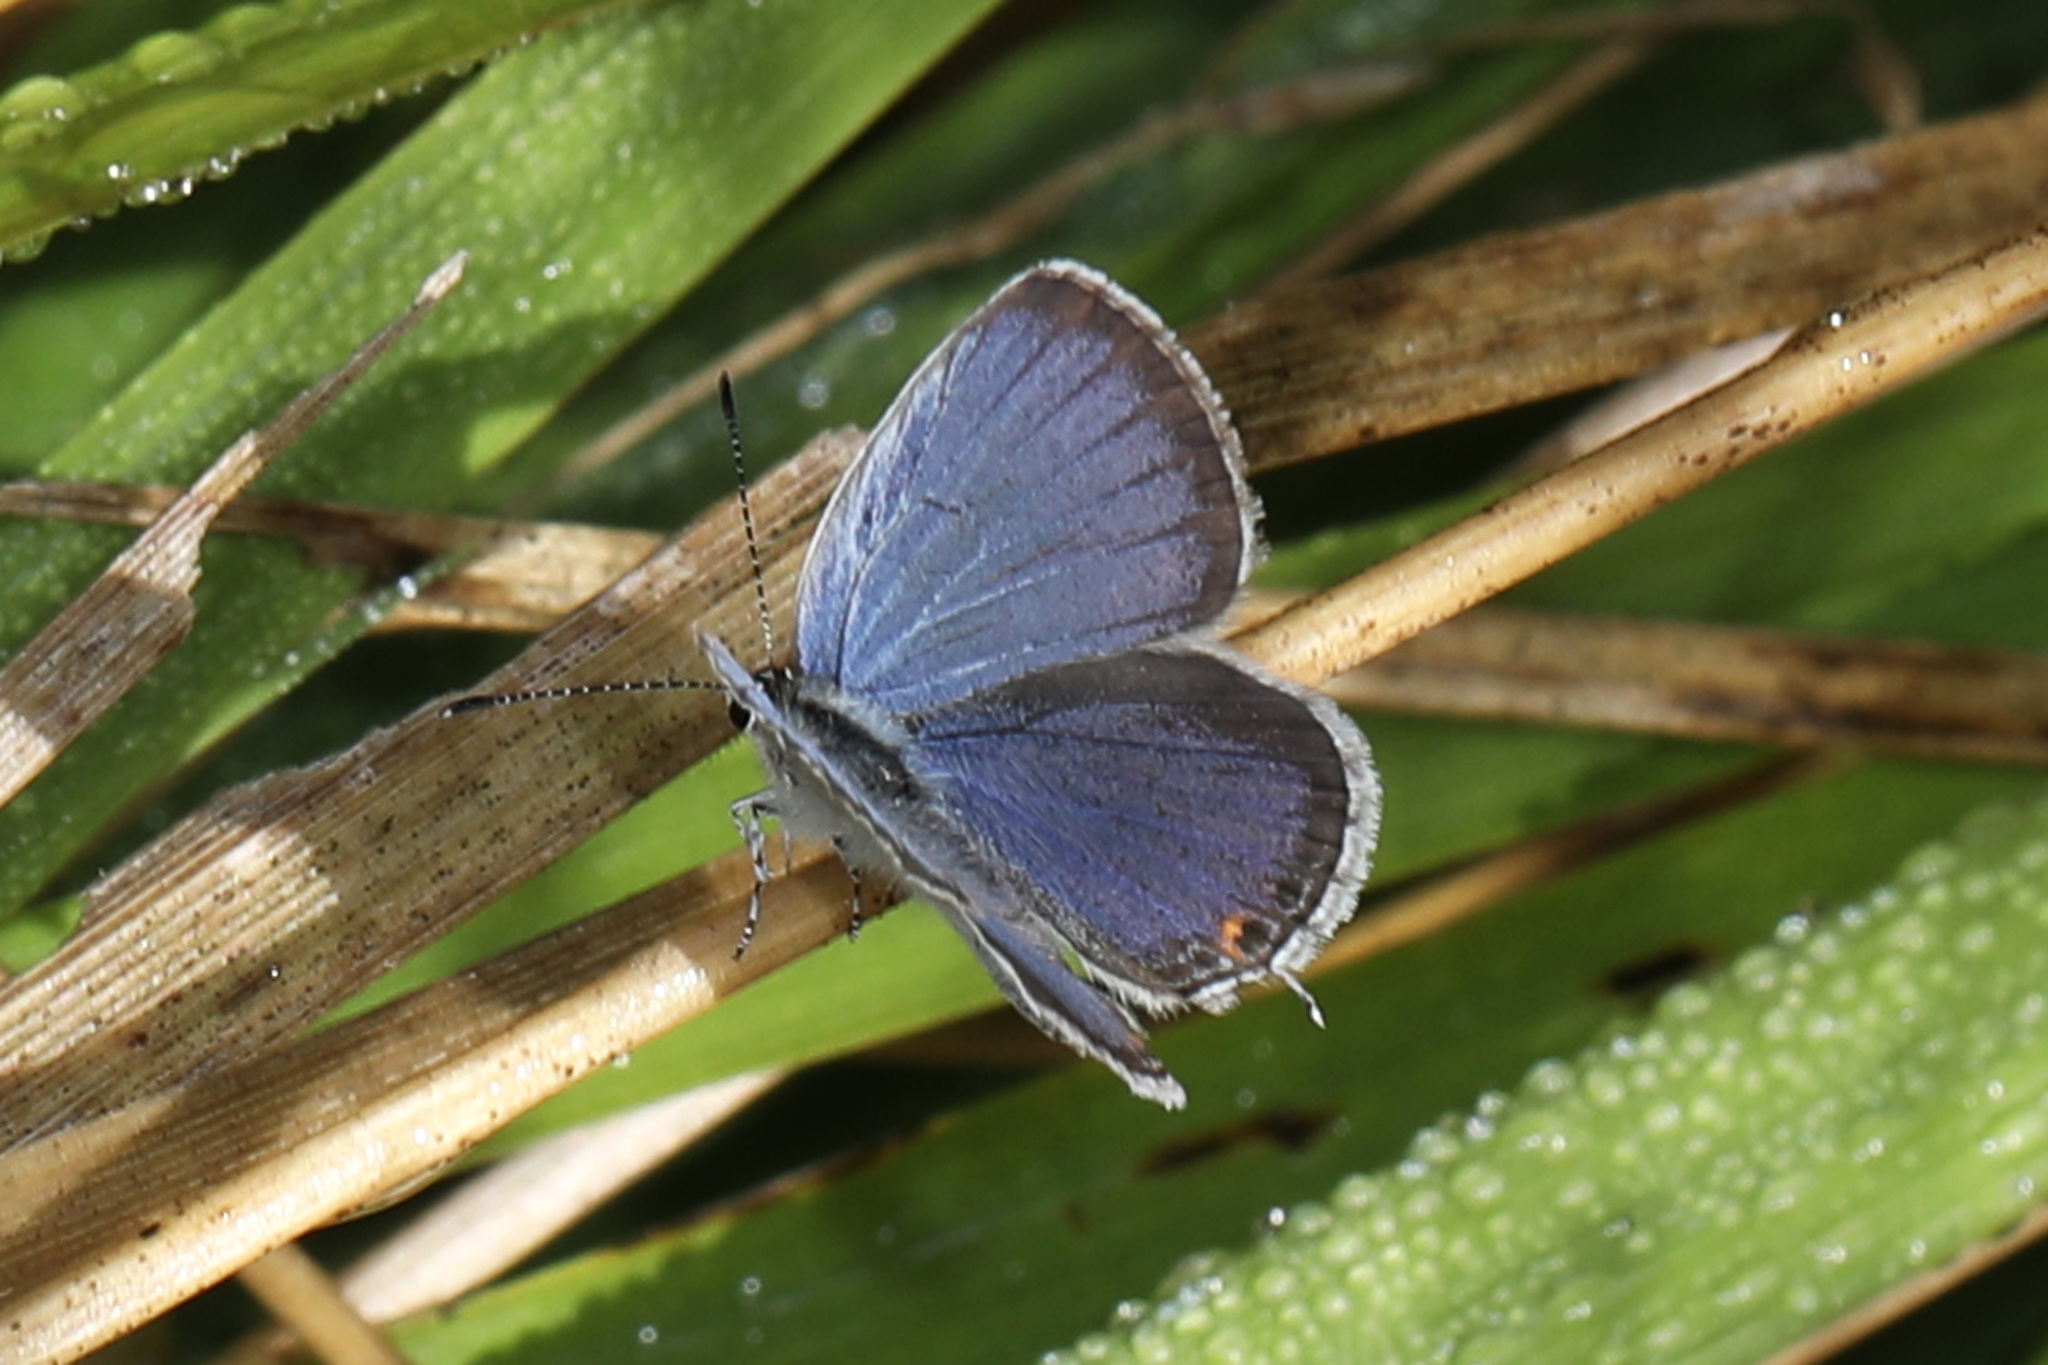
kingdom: Animalia
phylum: Arthropoda
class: Insecta
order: Lepidoptera
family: Lycaenidae
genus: Elkalyce
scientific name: Elkalyce comyntas
